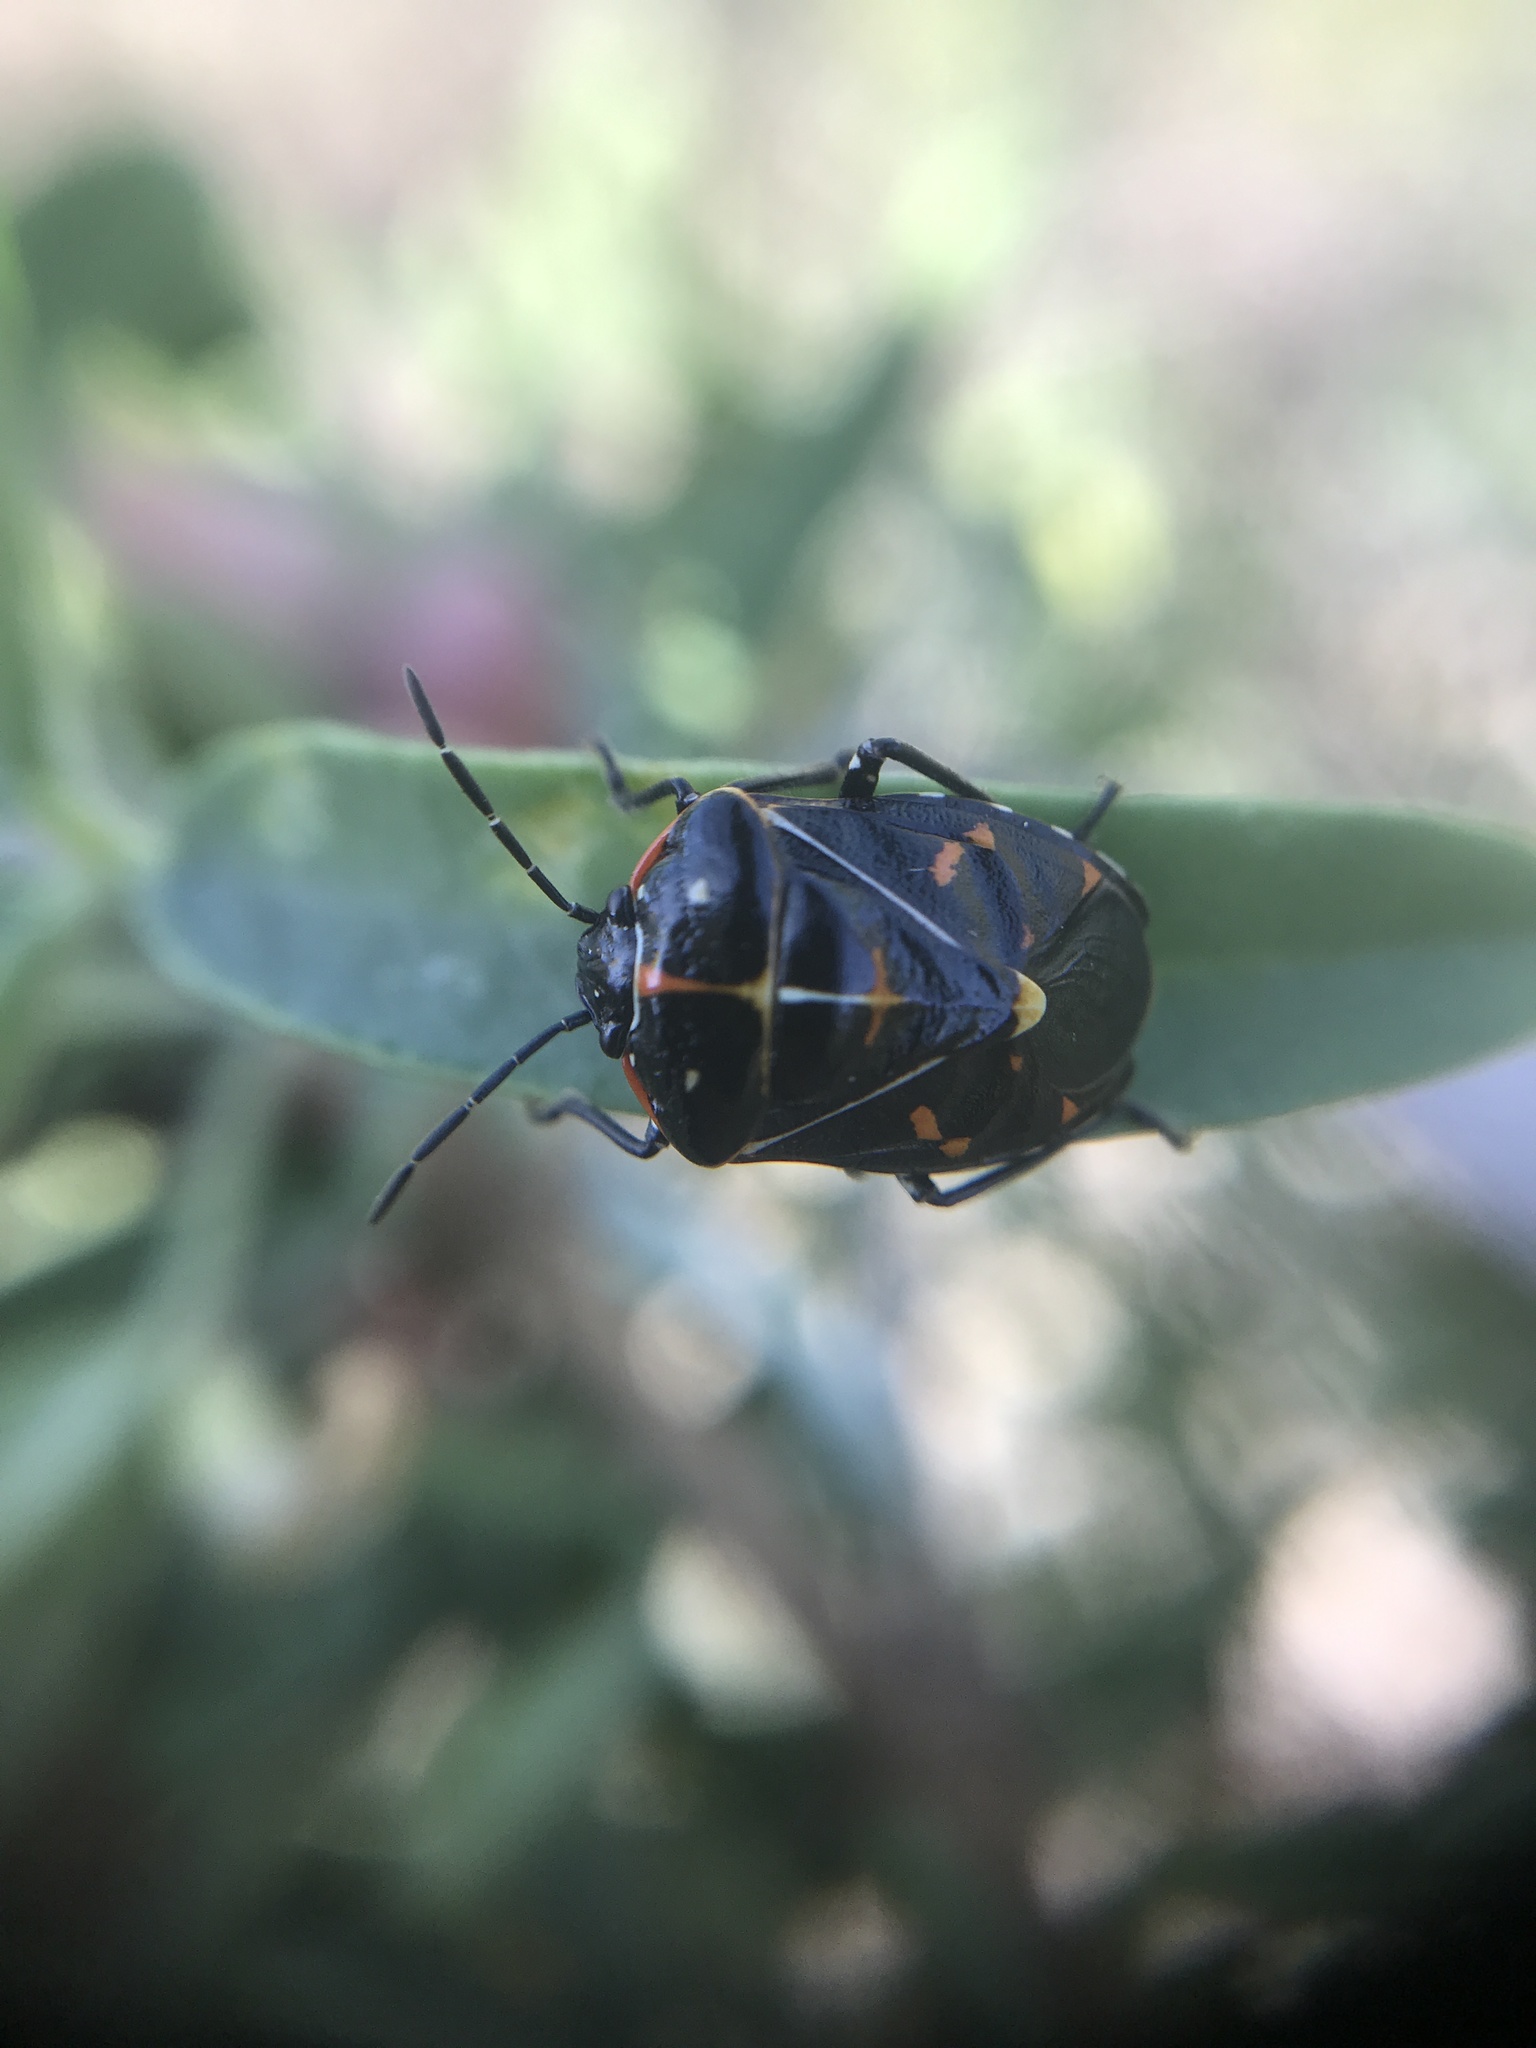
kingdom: Animalia
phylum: Arthropoda
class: Insecta
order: Hemiptera
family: Pentatomidae
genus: Murgantia
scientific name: Murgantia histrionica
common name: Harlequin bug
